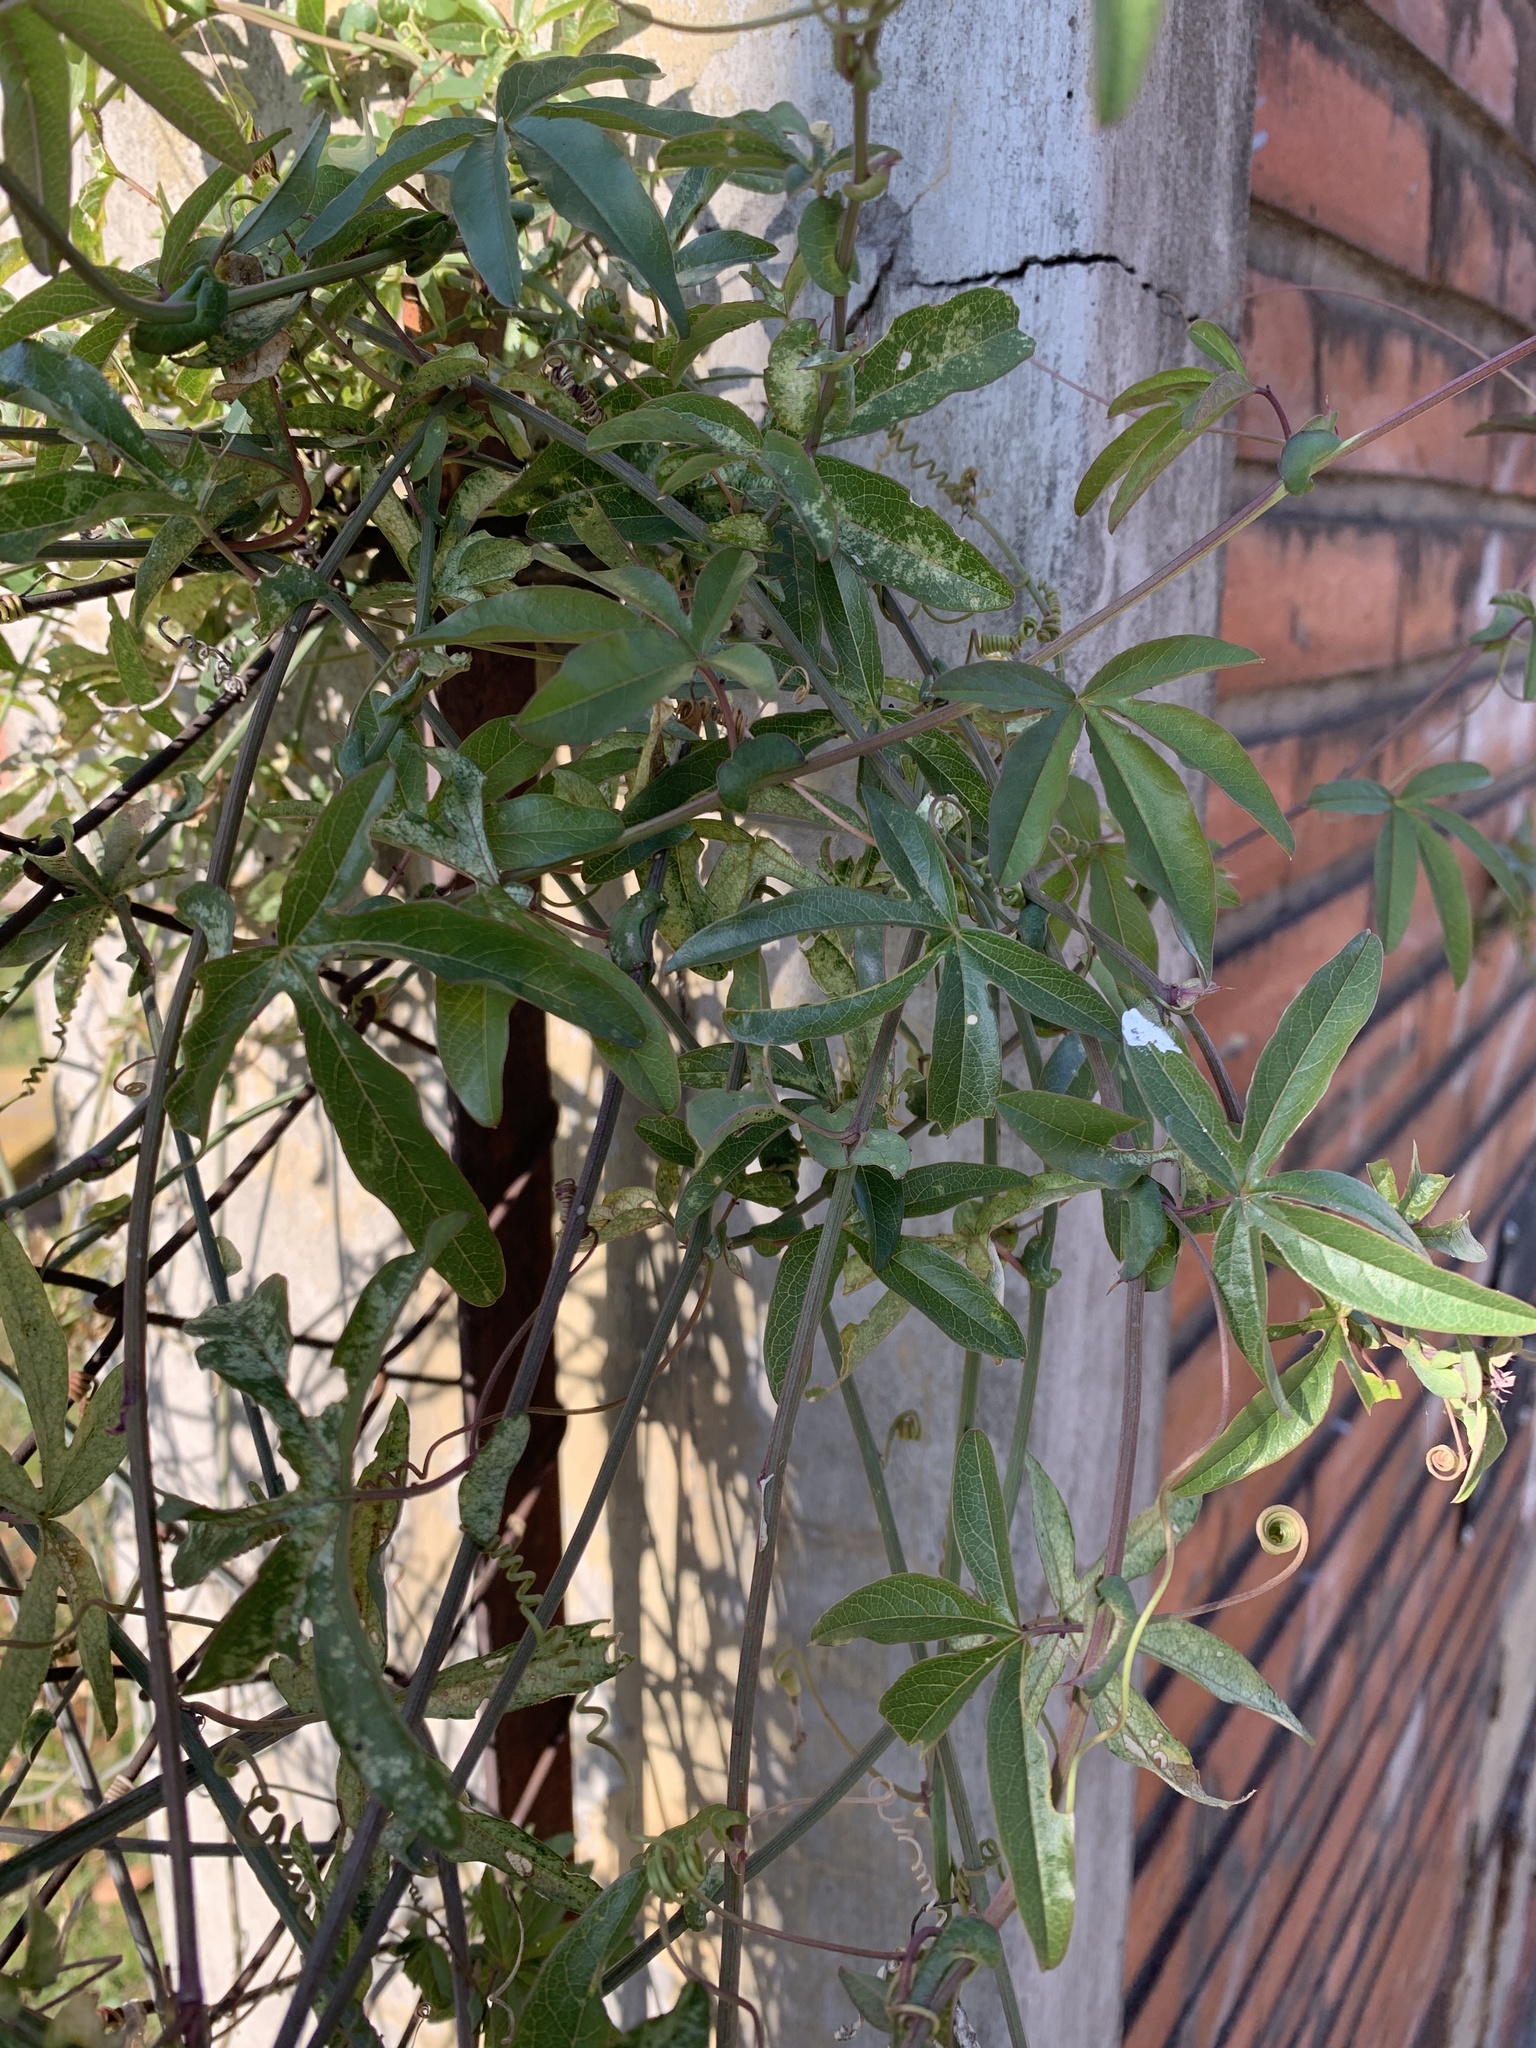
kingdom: Plantae
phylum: Tracheophyta
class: Magnoliopsida
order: Malpighiales
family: Passifloraceae
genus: Passiflora
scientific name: Passiflora caerulea
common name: Blue passionflower
